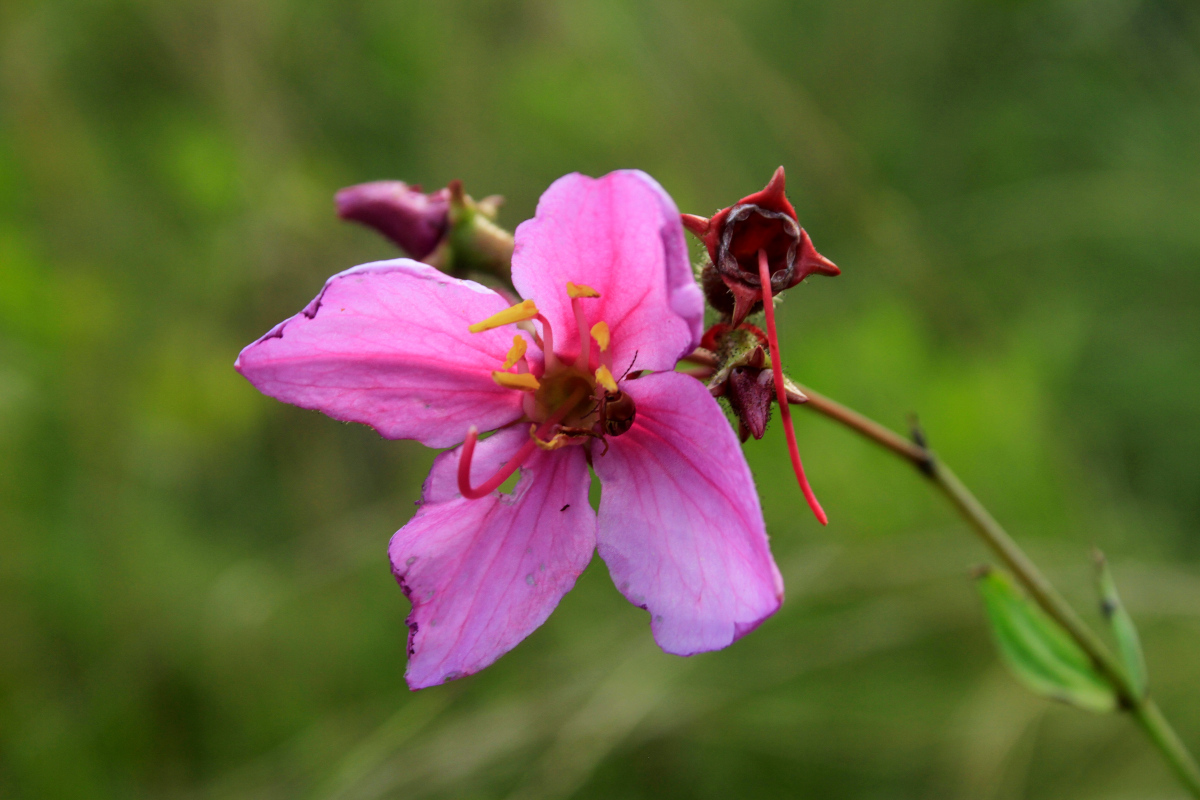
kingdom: Plantae
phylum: Tracheophyta
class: Magnoliopsida
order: Myrtales
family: Melastomataceae
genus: Rhexia
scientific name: Rhexia alifanus
